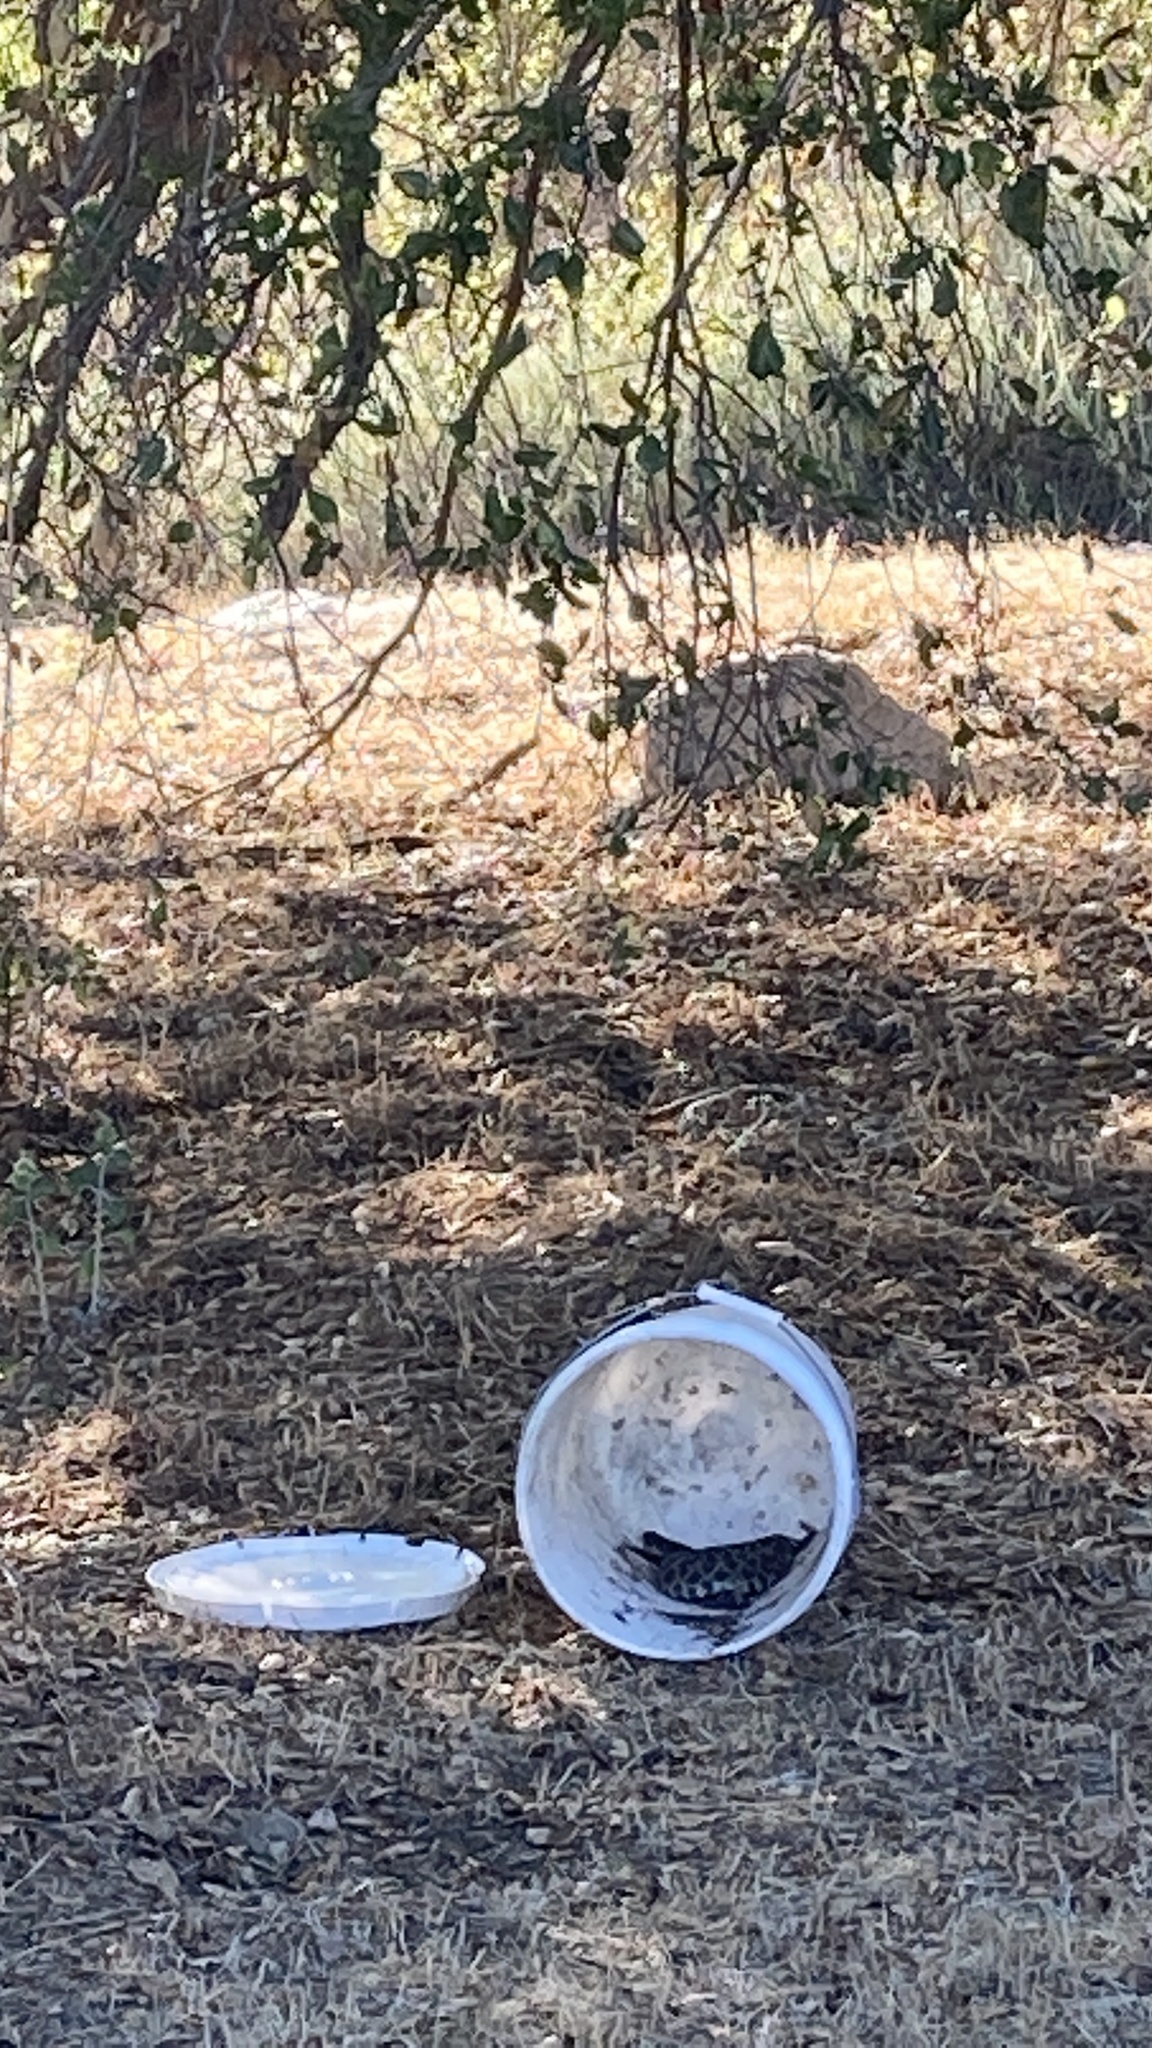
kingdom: Animalia
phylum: Chordata
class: Squamata
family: Viperidae
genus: Crotalus
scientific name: Crotalus oreganus
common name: Abyssus
